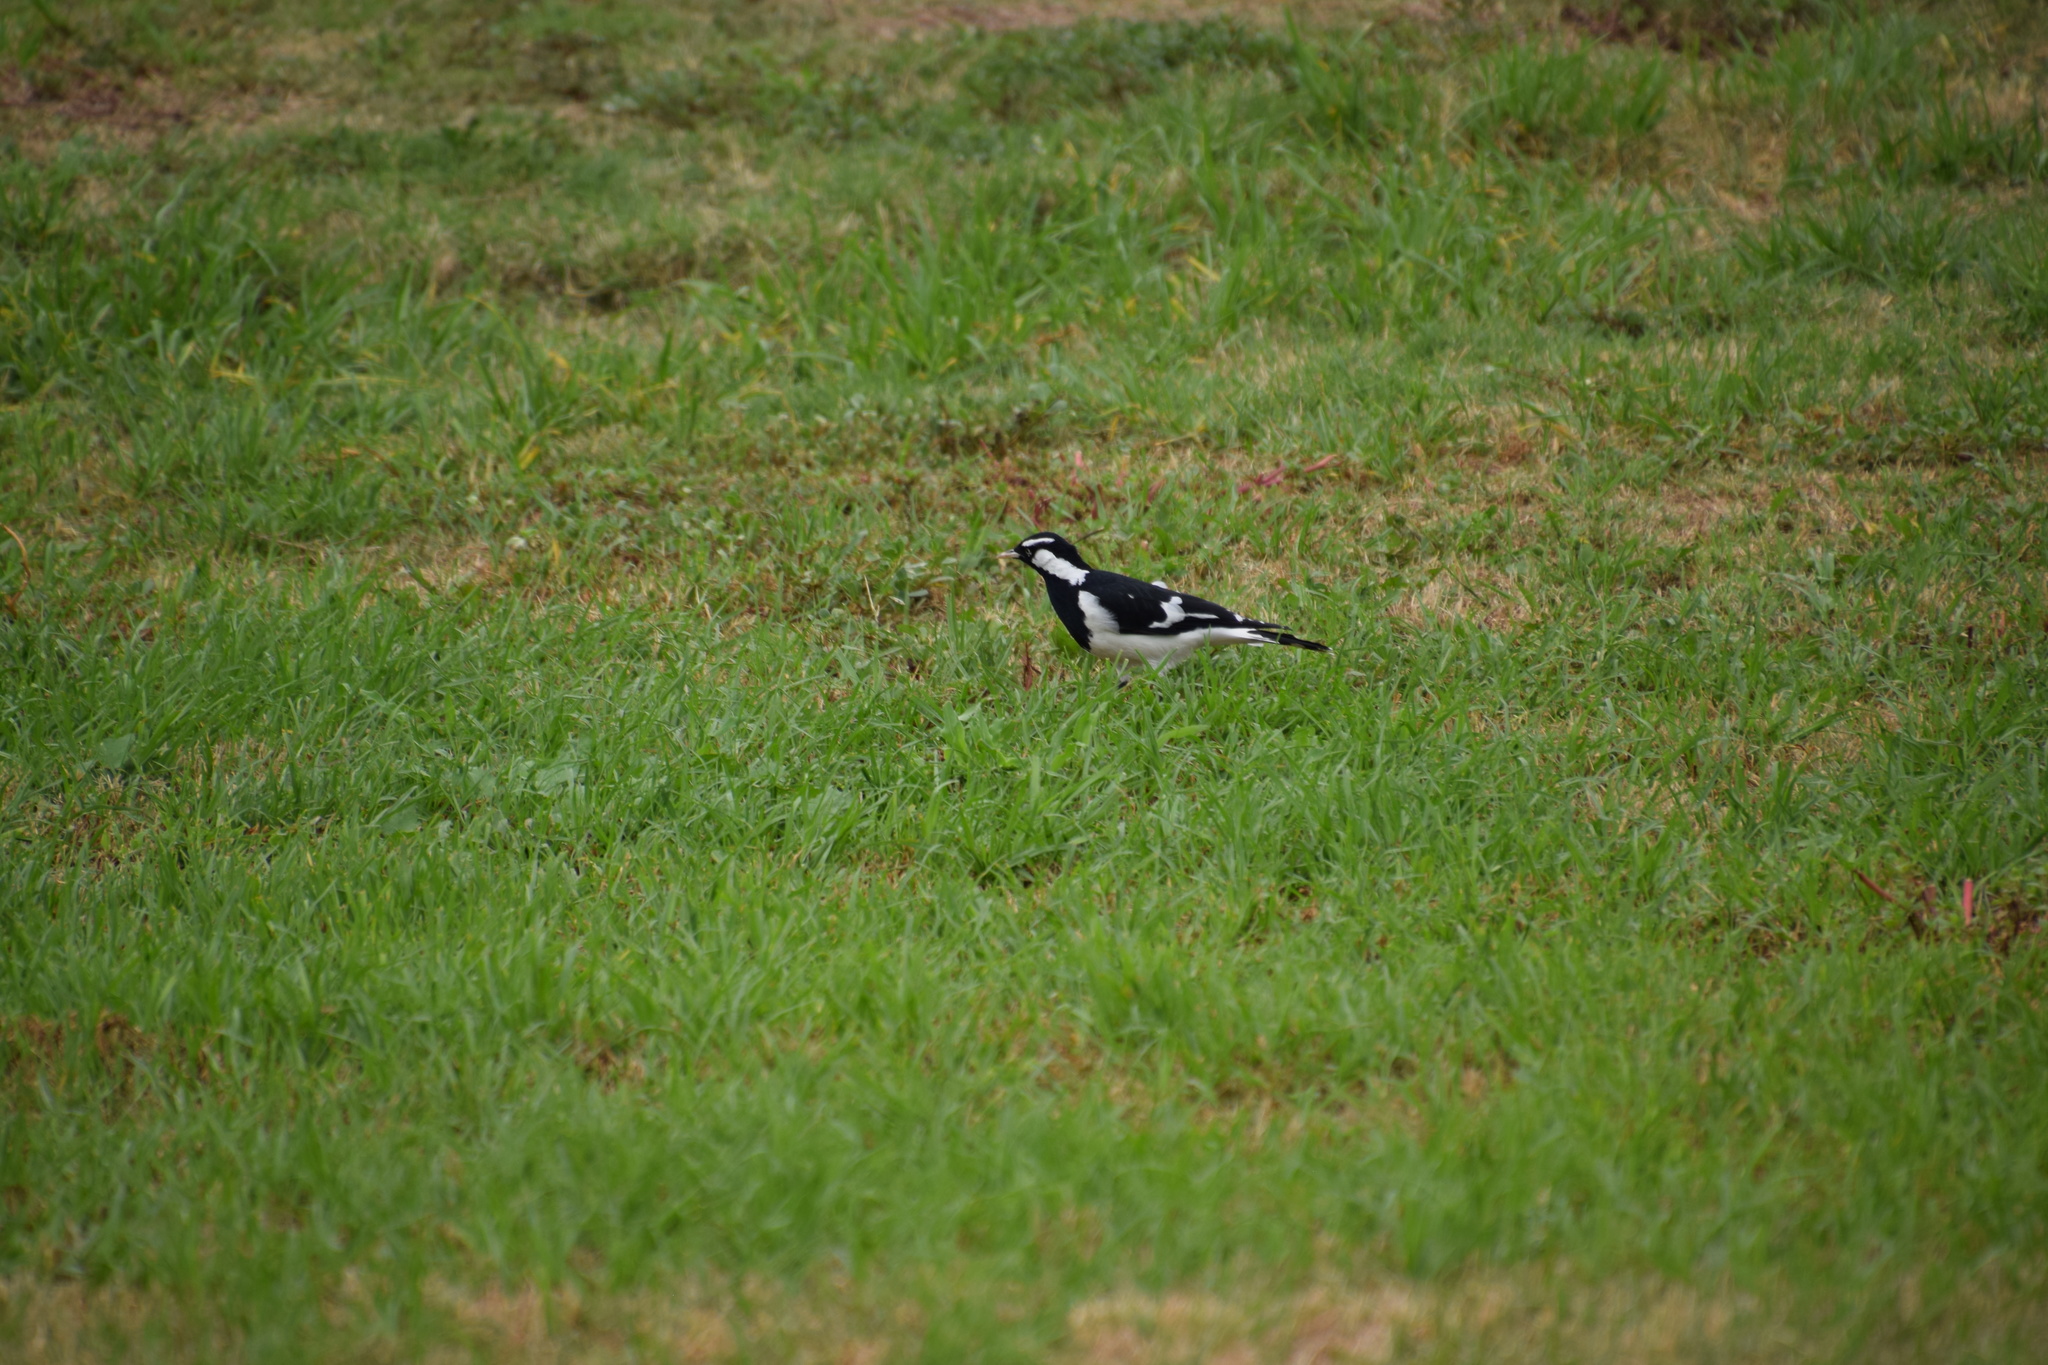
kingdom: Animalia
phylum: Chordata
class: Aves
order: Passeriformes
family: Monarchidae
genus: Grallina
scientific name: Grallina cyanoleuca
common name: Magpie-lark
